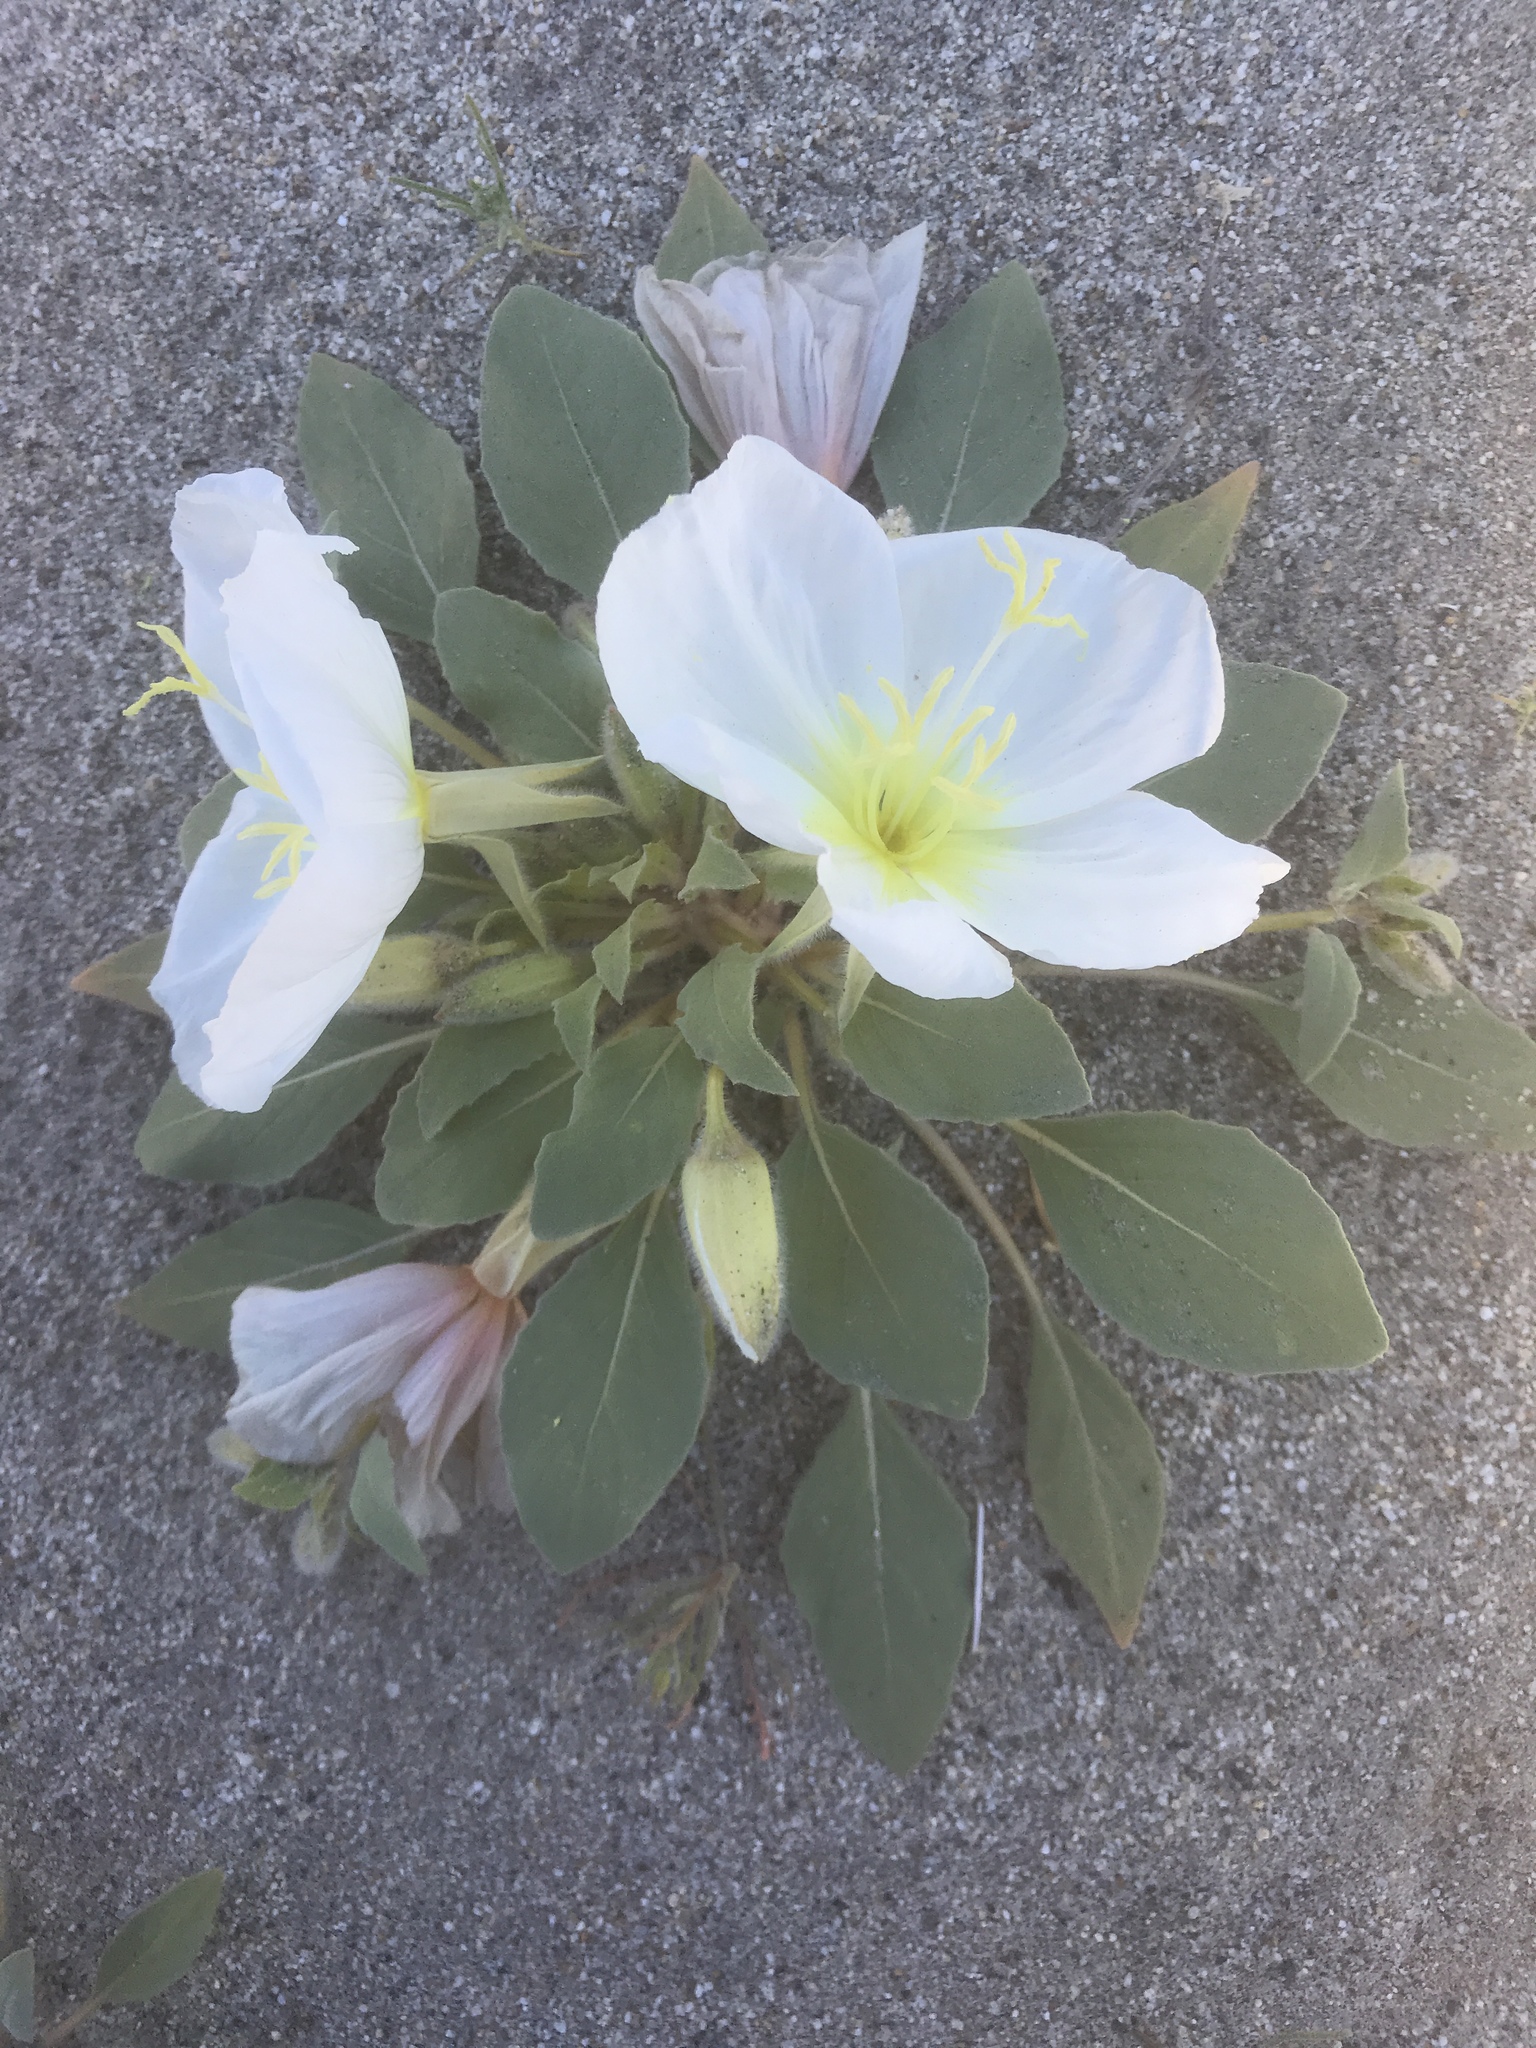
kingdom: Plantae
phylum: Tracheophyta
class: Magnoliopsida
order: Myrtales
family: Onagraceae
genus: Oenothera
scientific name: Oenothera deltoides
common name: Basket evening-primrose
